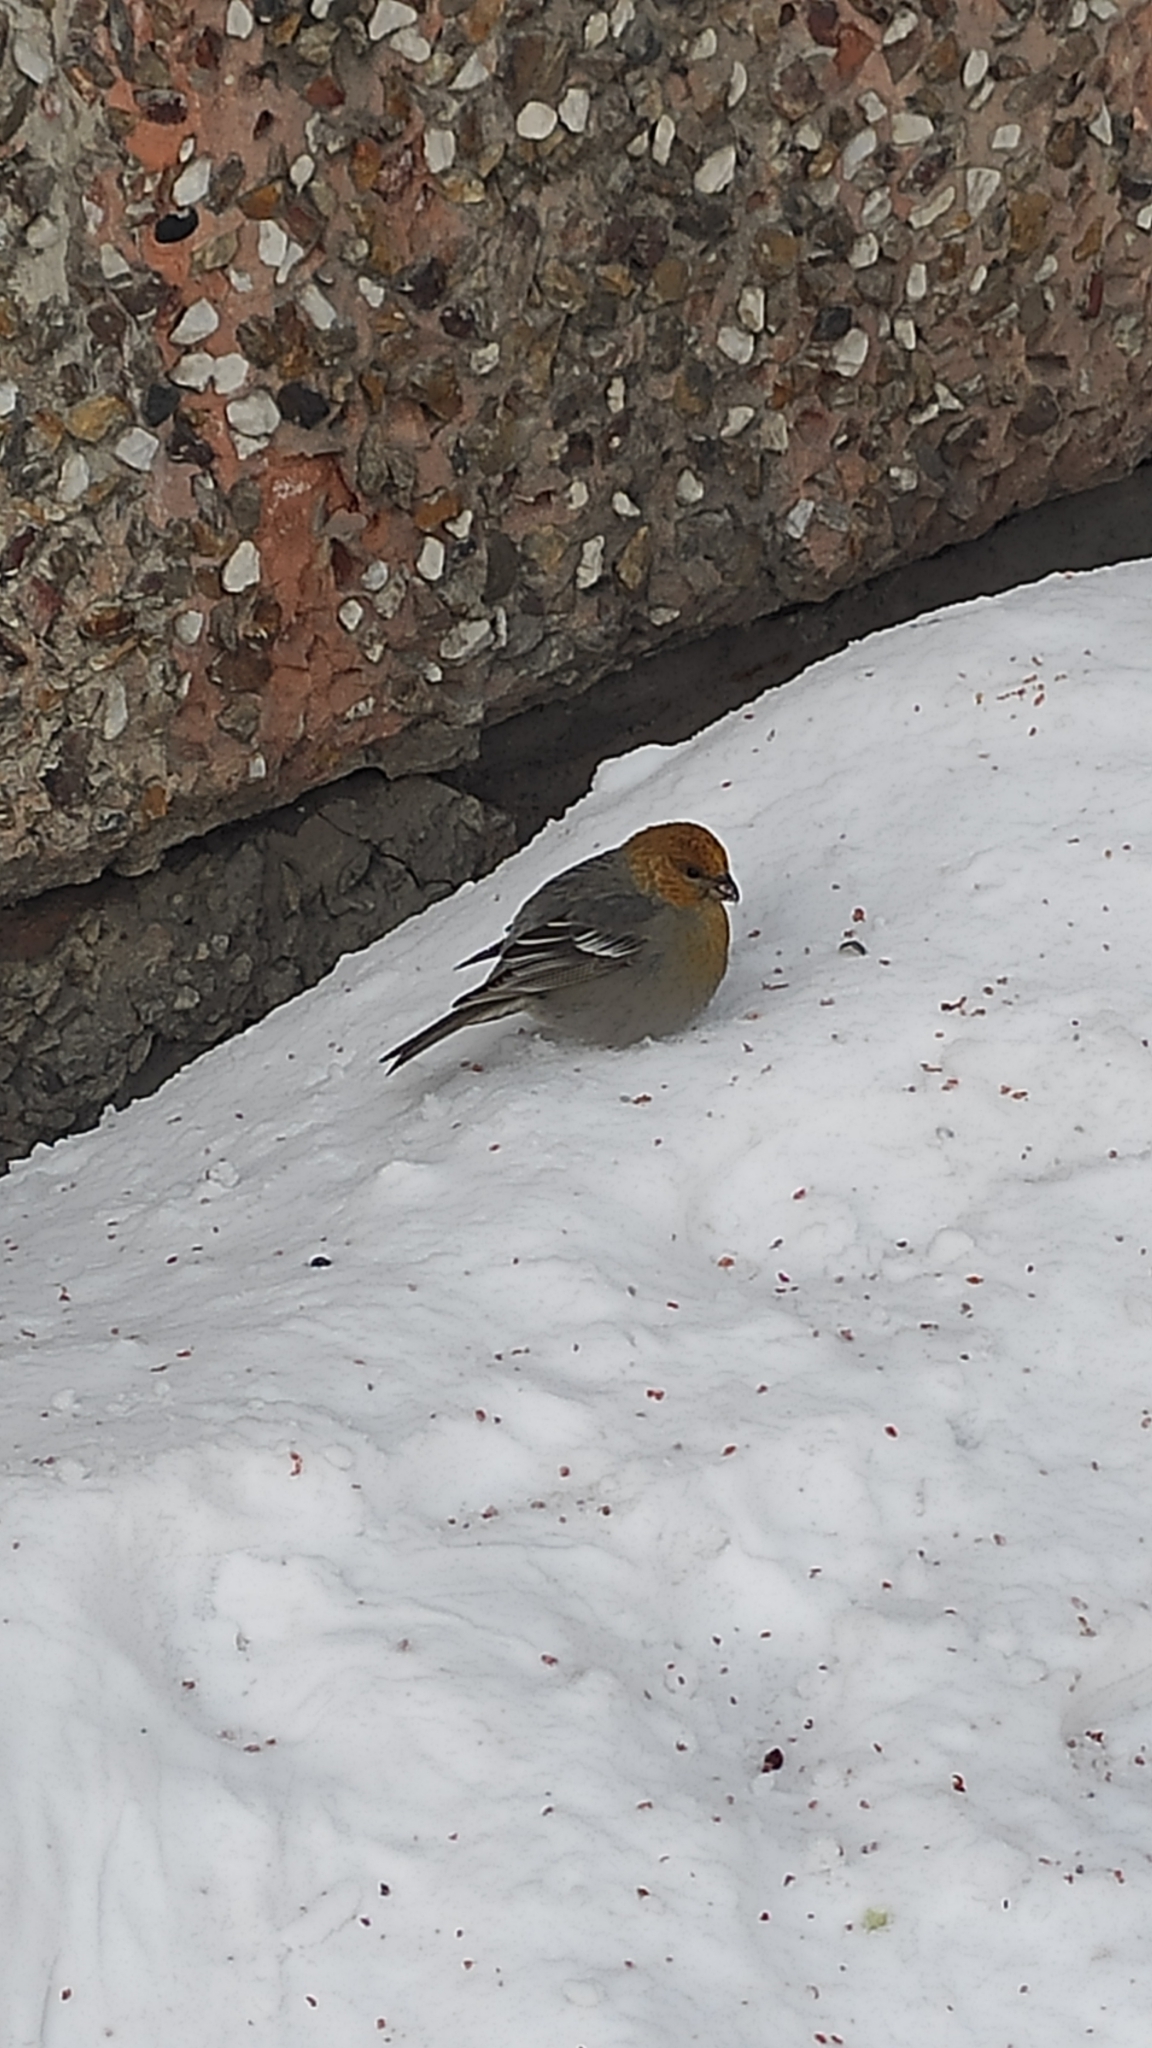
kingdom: Animalia
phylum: Chordata
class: Aves
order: Passeriformes
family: Fringillidae
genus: Pinicola
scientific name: Pinicola enucleator
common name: Pine grosbeak
